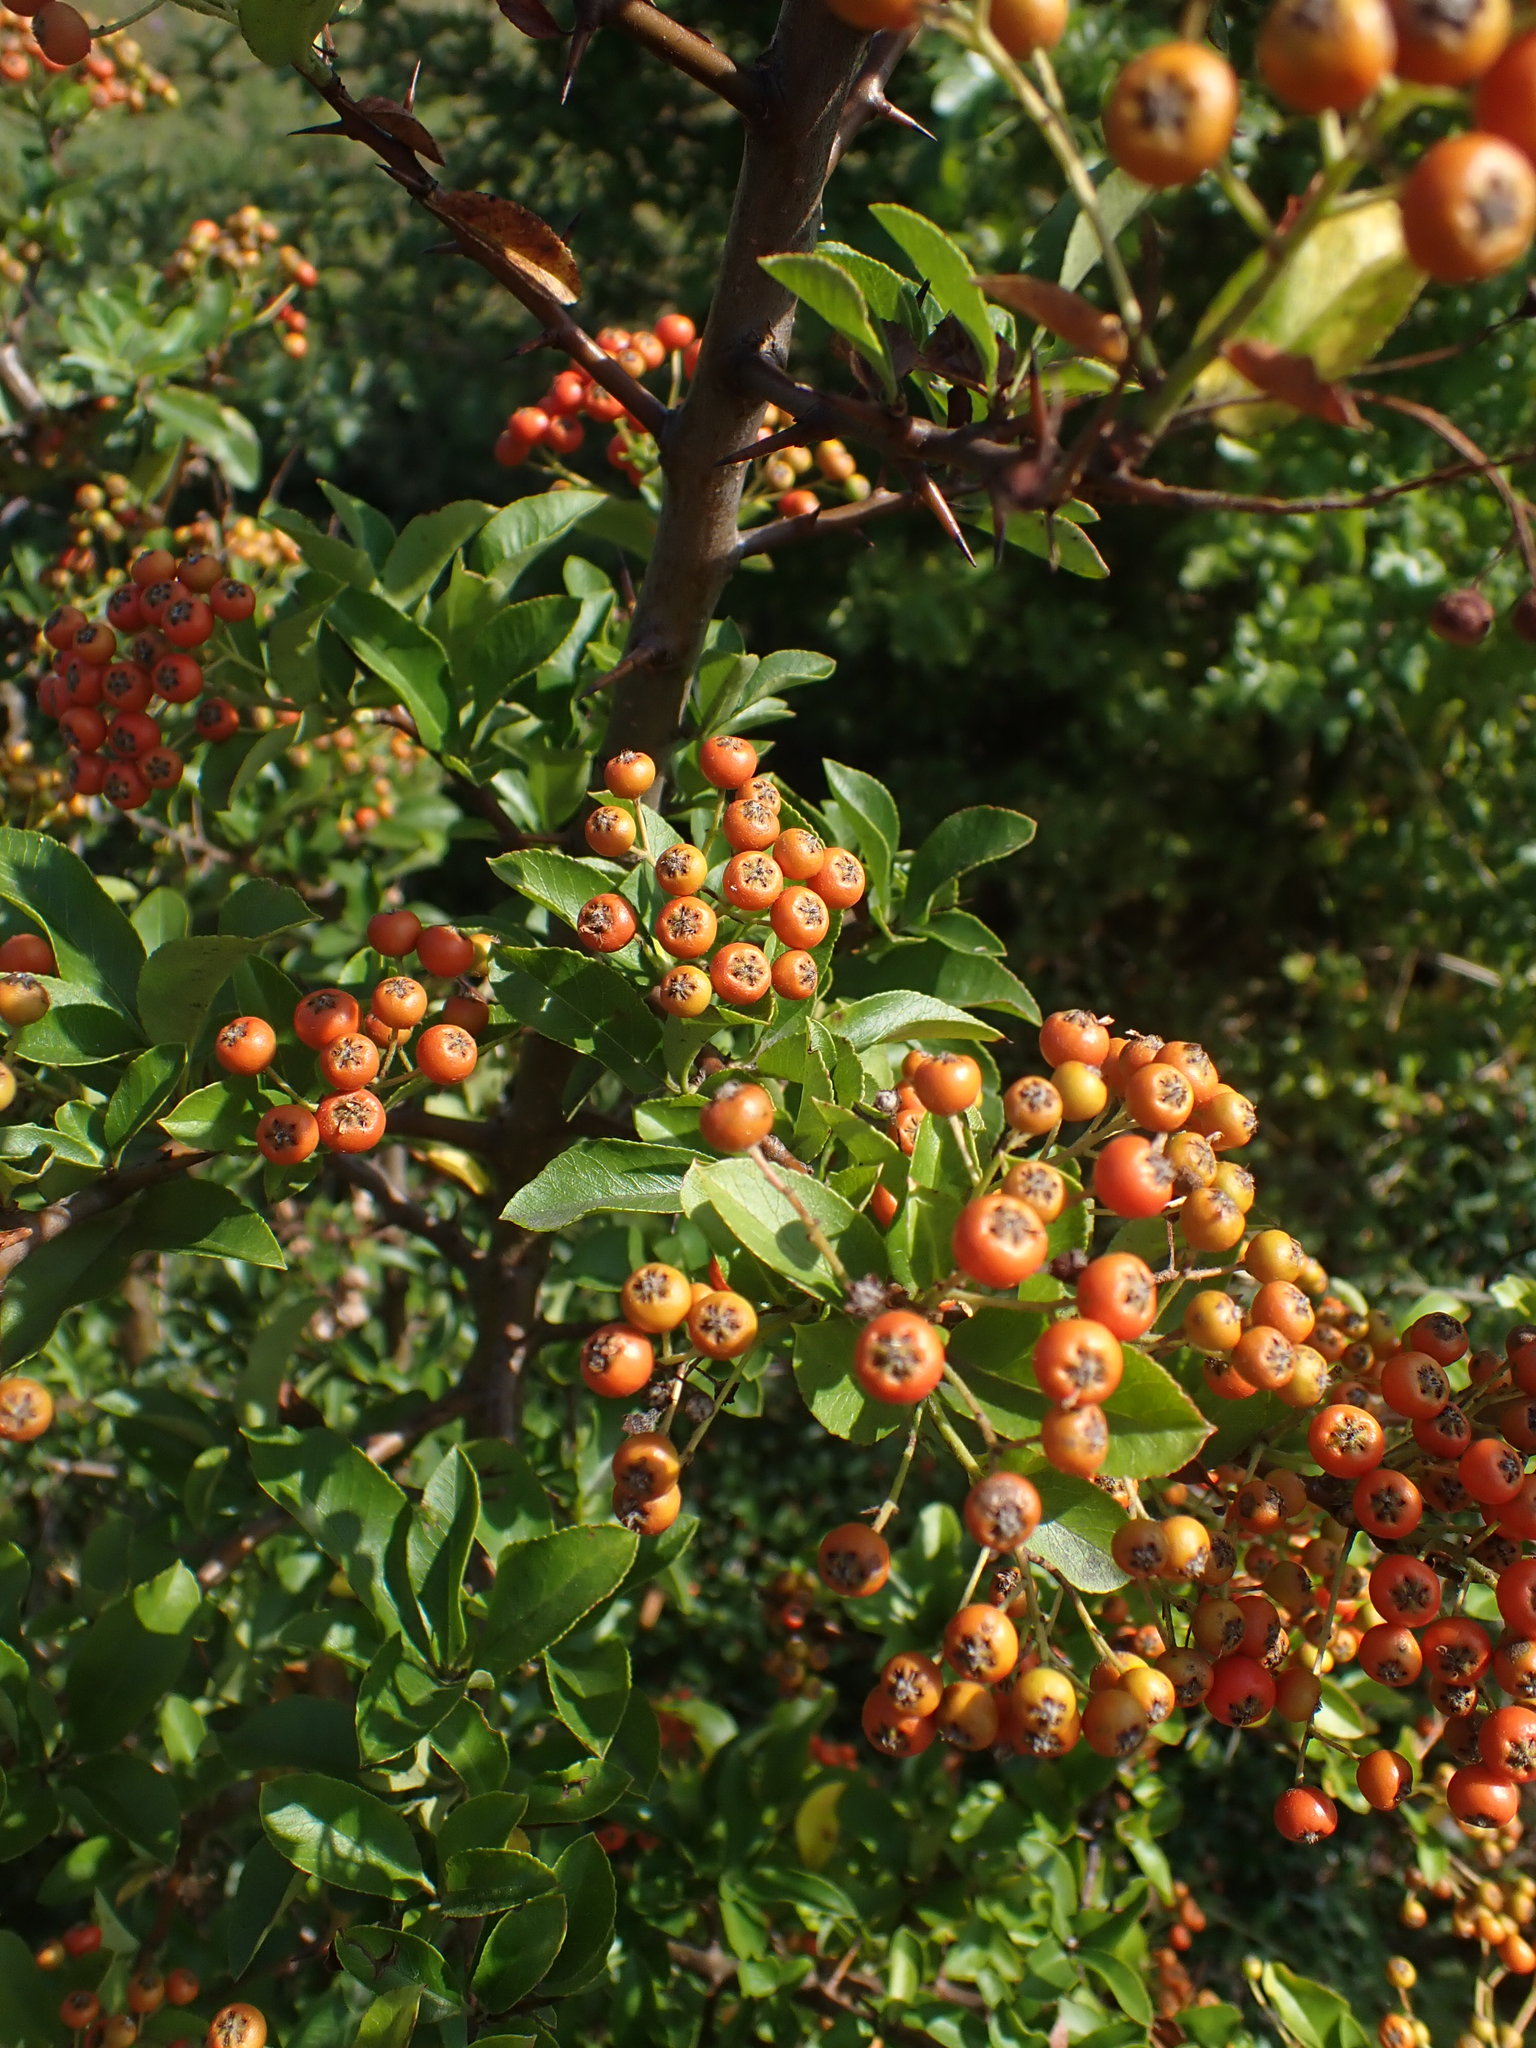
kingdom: Plantae
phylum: Tracheophyta
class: Magnoliopsida
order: Rosales
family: Rosaceae
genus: Pyracantha
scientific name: Pyracantha coccinea
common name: Firethorn
